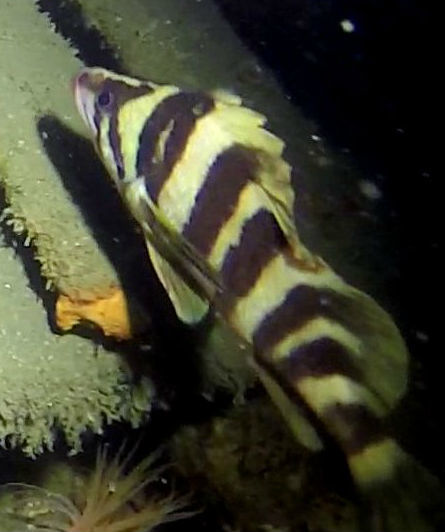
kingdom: Animalia
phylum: Chordata
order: Scorpaeniformes
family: Sebastidae
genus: Sebastes
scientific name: Sebastes serriceps
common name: Treefish
